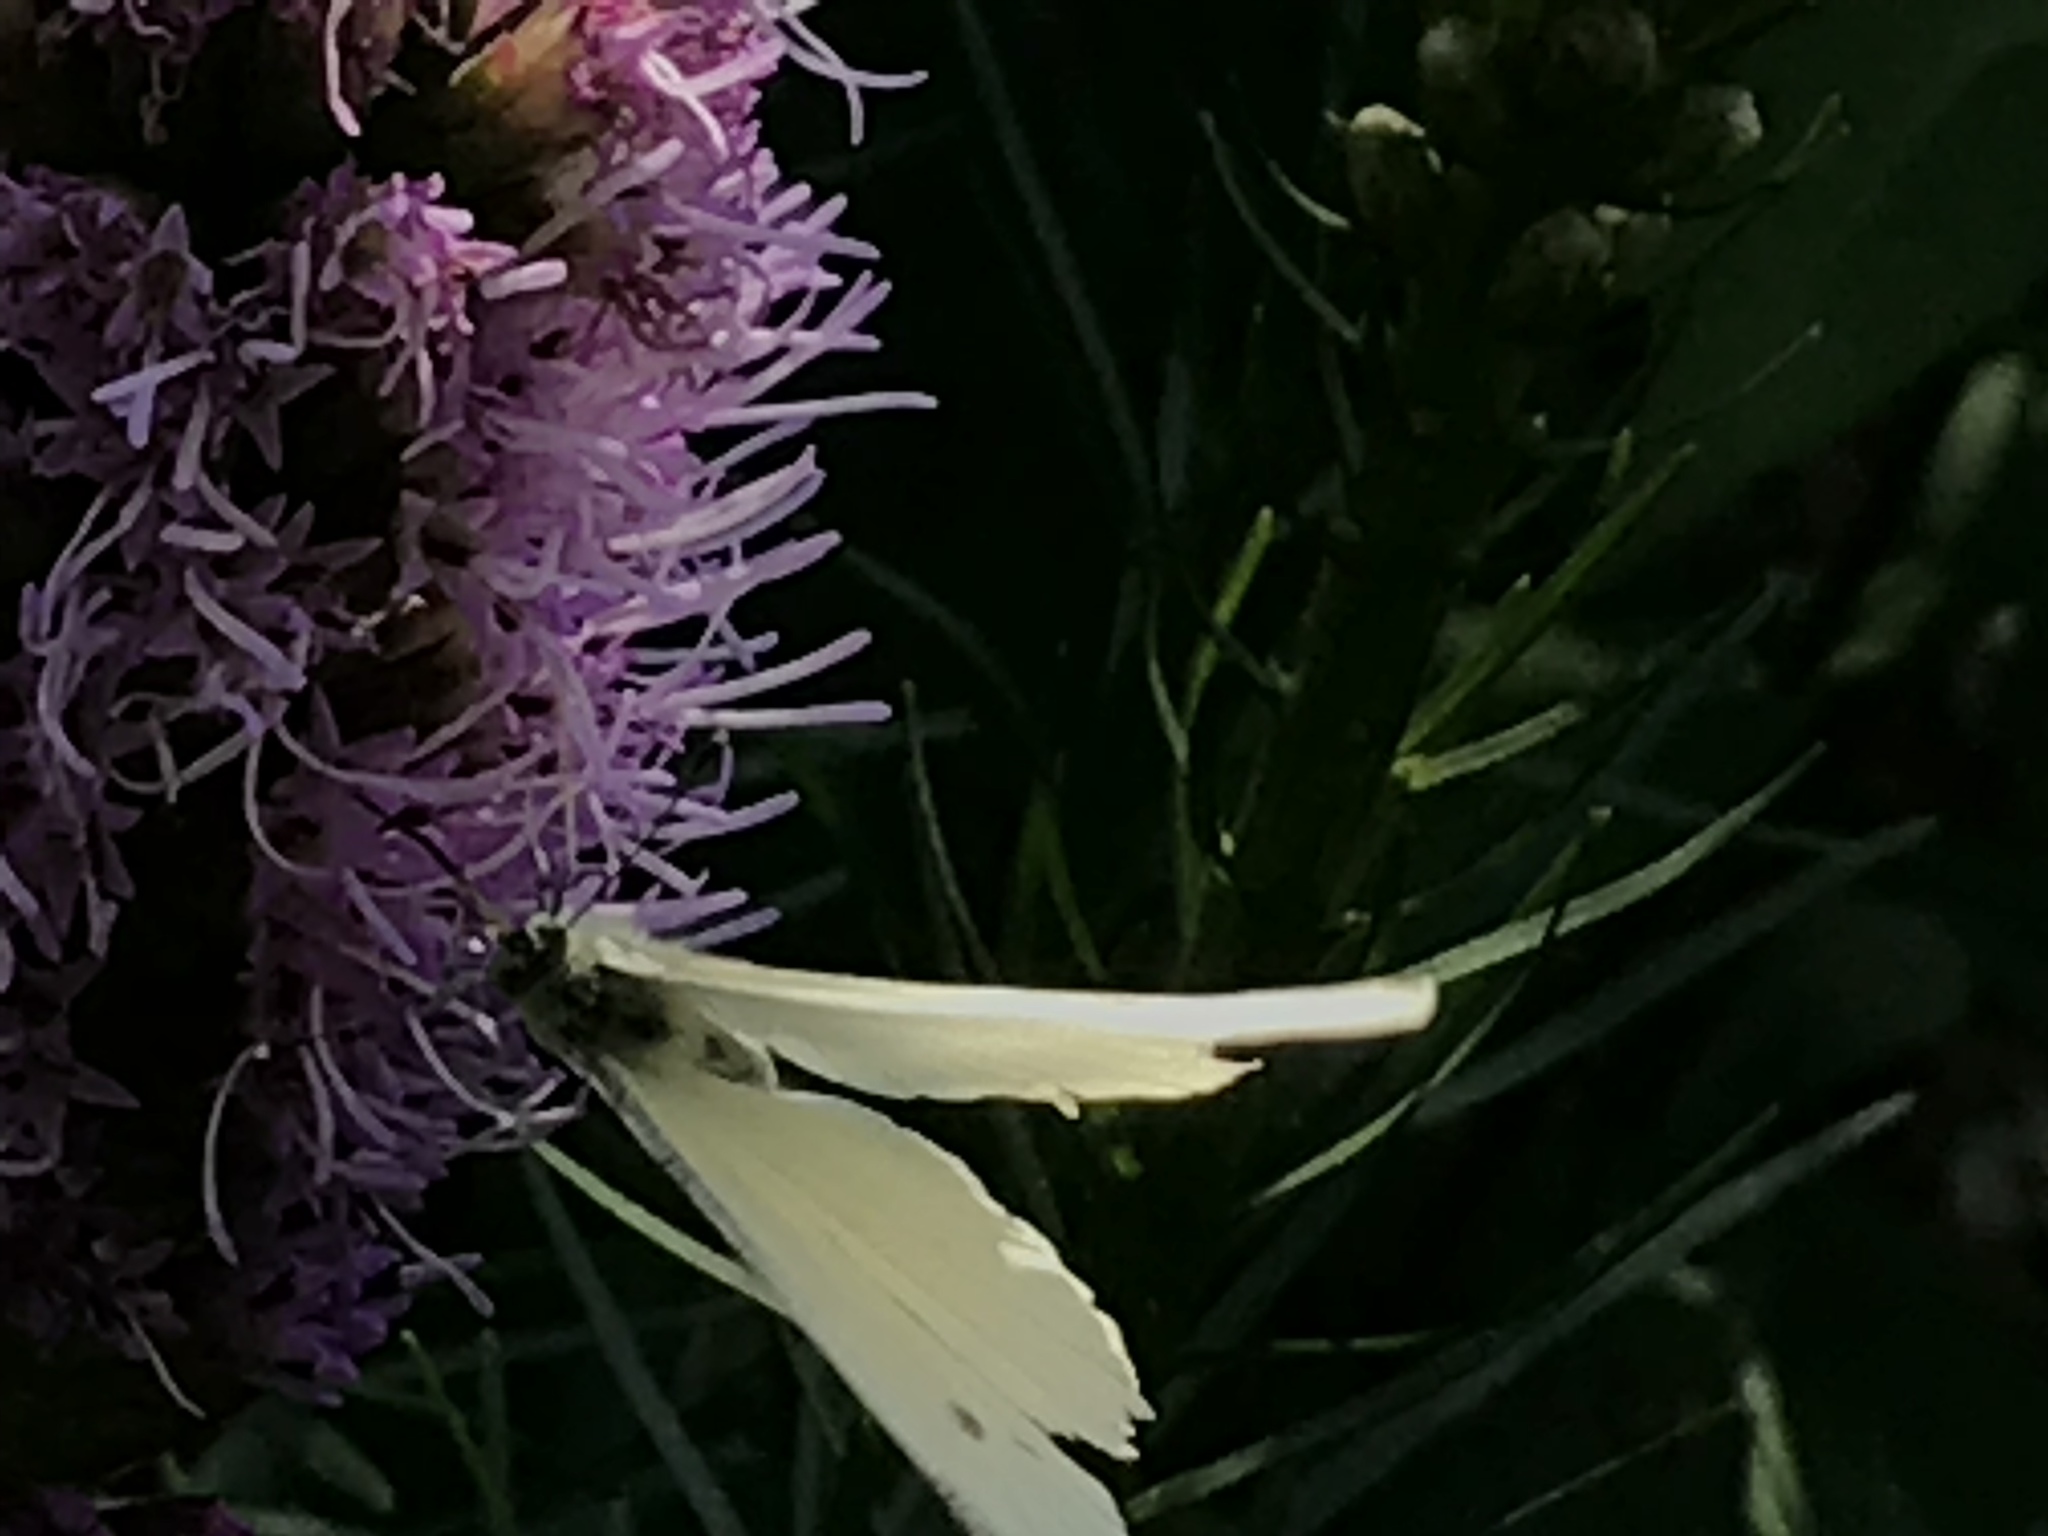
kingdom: Animalia
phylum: Arthropoda
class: Insecta
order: Lepidoptera
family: Pieridae
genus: Pieris
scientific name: Pieris rapae
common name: Small white
